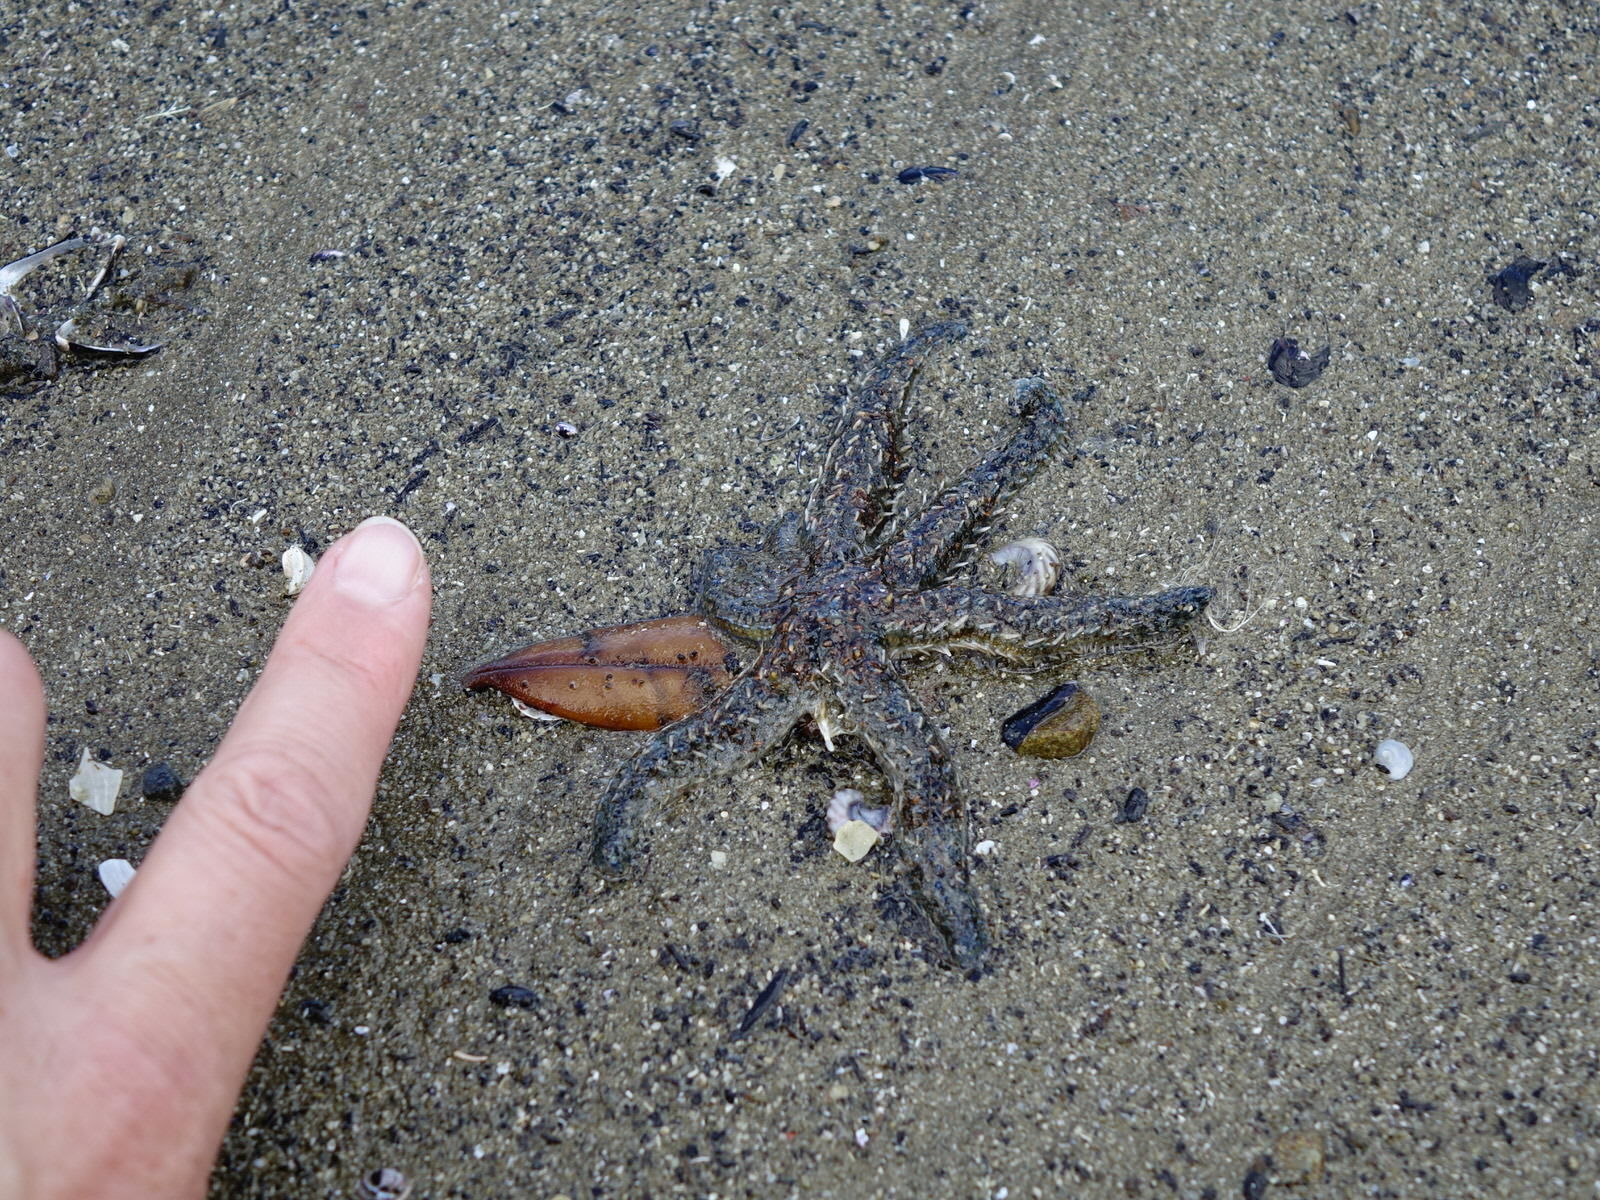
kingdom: Animalia
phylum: Echinodermata
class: Asteroidea
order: Forcipulatida
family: Asteriidae
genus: Coscinasterias
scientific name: Coscinasterias muricata
